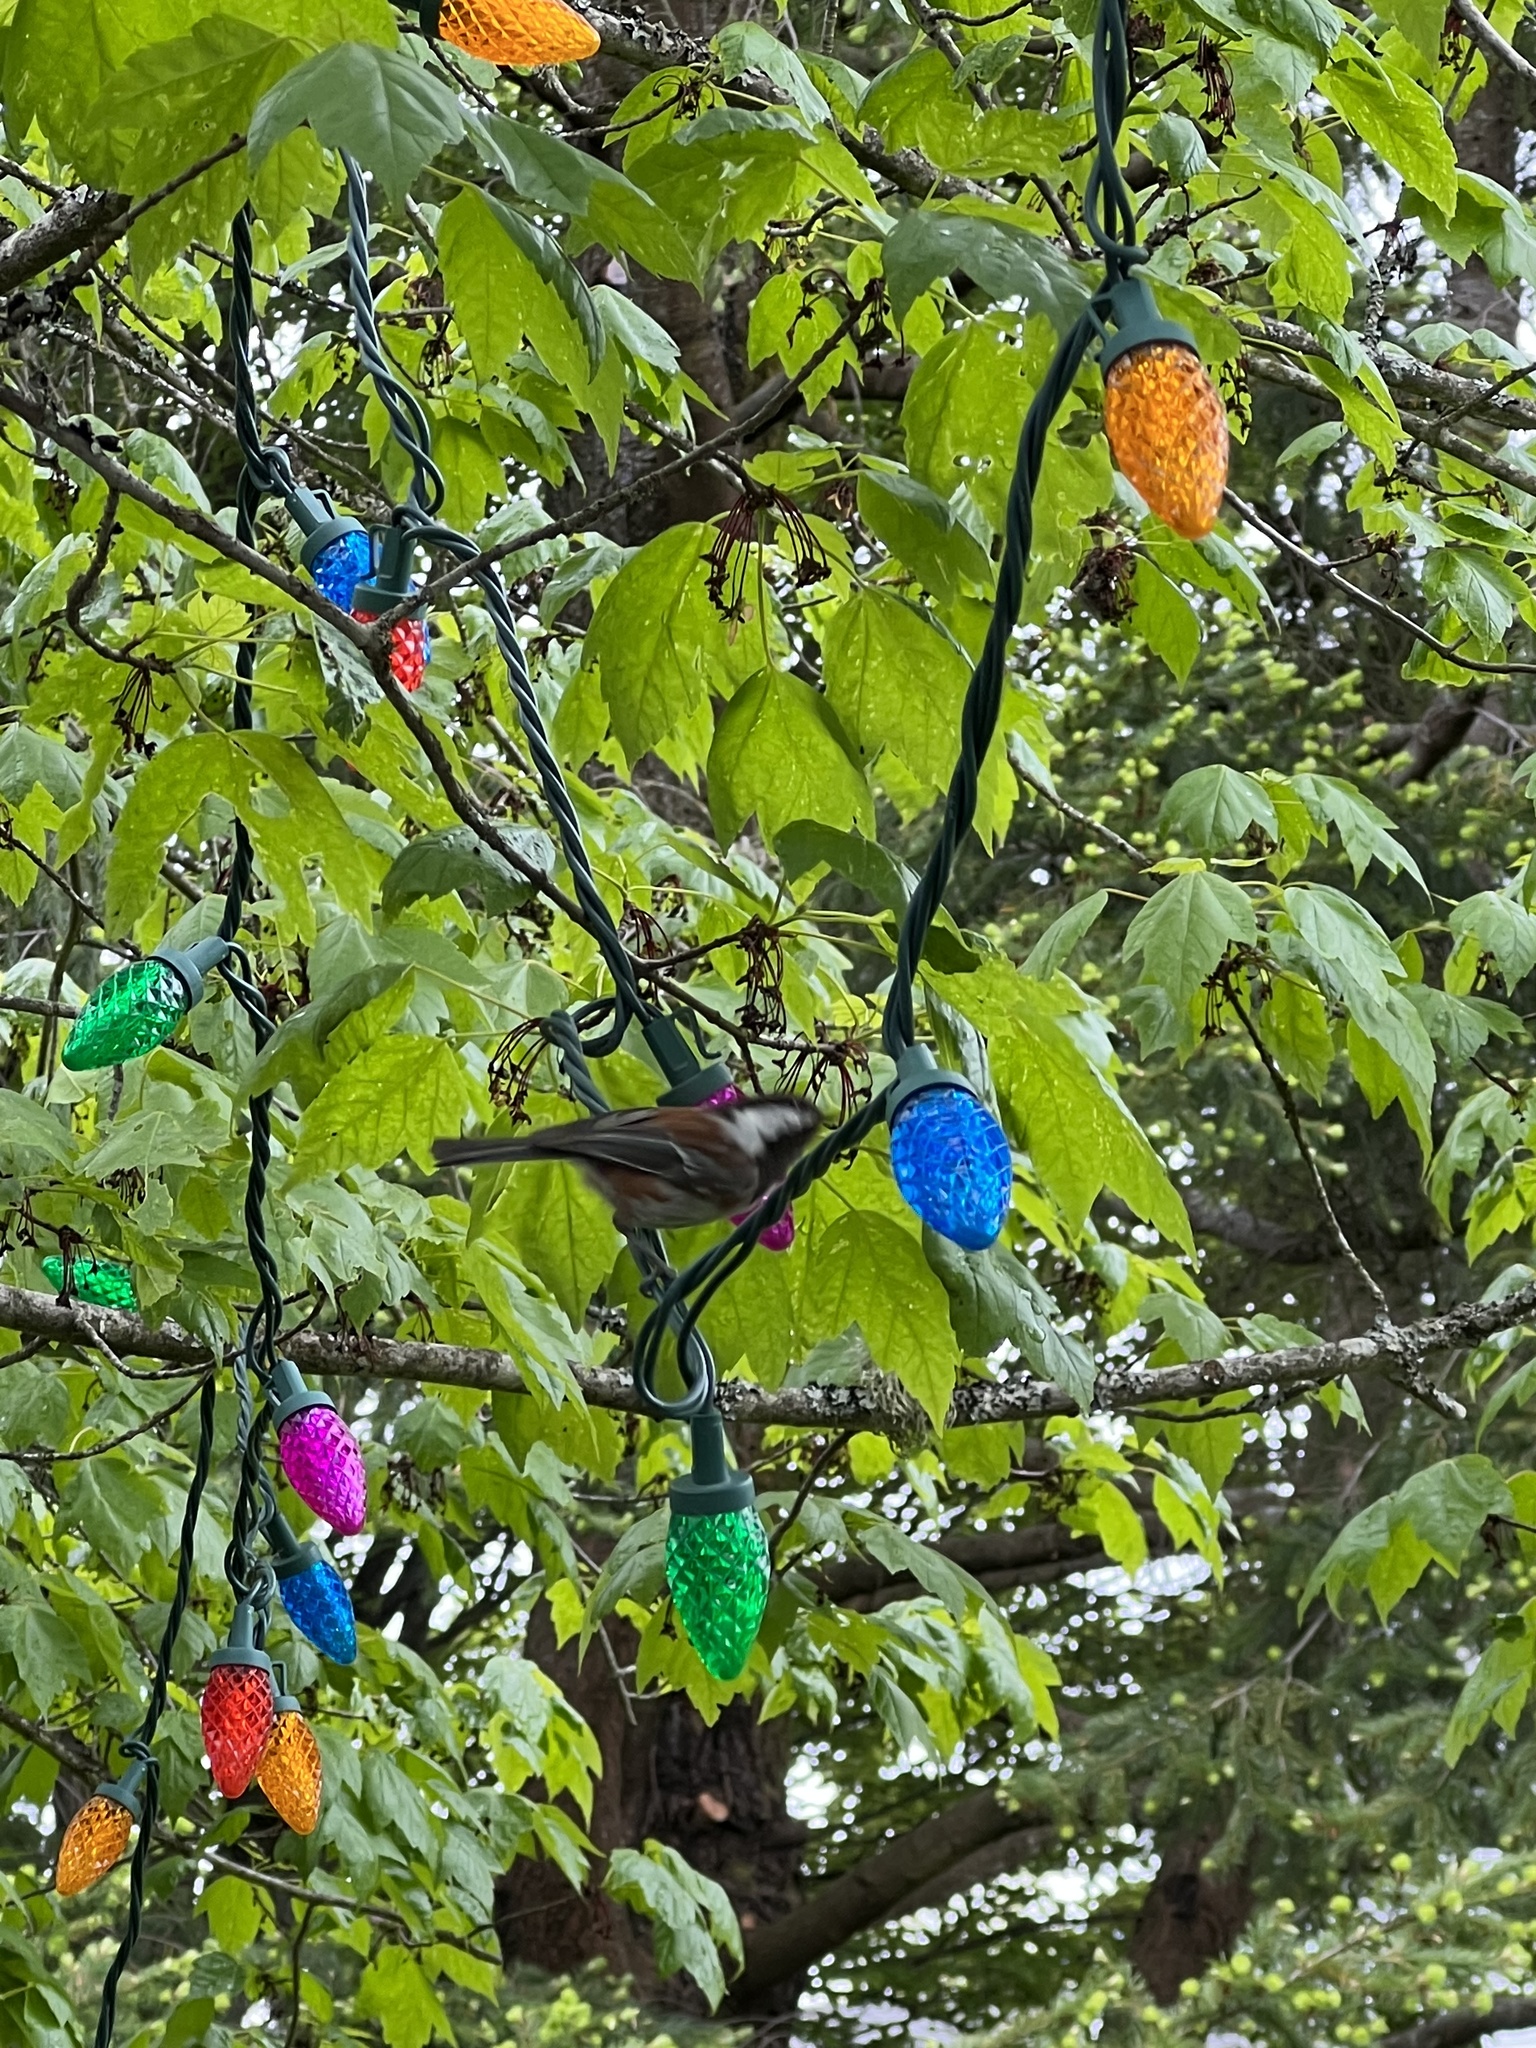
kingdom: Animalia
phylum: Chordata
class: Aves
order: Passeriformes
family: Paridae
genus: Poecile
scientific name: Poecile rufescens
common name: Chestnut-backed chickadee
